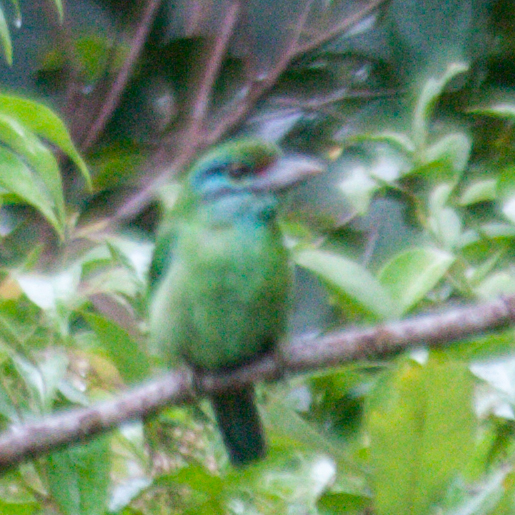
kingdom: Animalia
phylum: Chordata
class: Aves
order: Piciformes
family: Megalaimidae
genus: Psilopogon
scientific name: Psilopogon incognitus
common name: Moustached barbet
